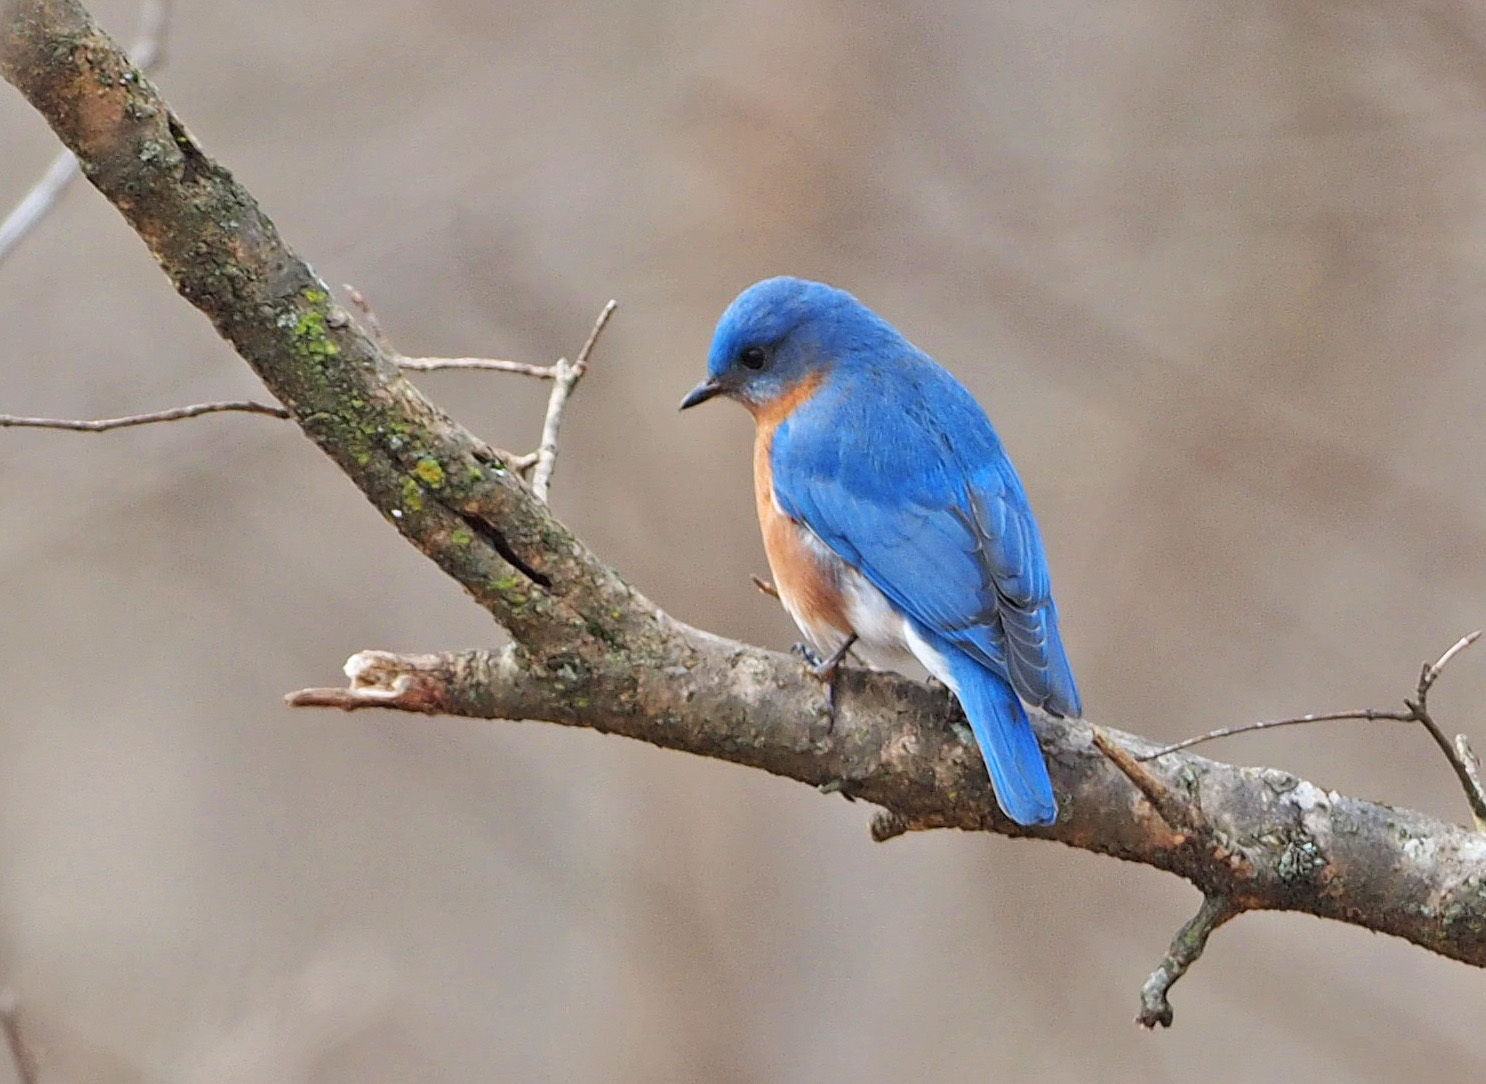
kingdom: Animalia
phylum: Chordata
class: Aves
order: Passeriformes
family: Turdidae
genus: Sialia
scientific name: Sialia sialis
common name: Eastern bluebird
